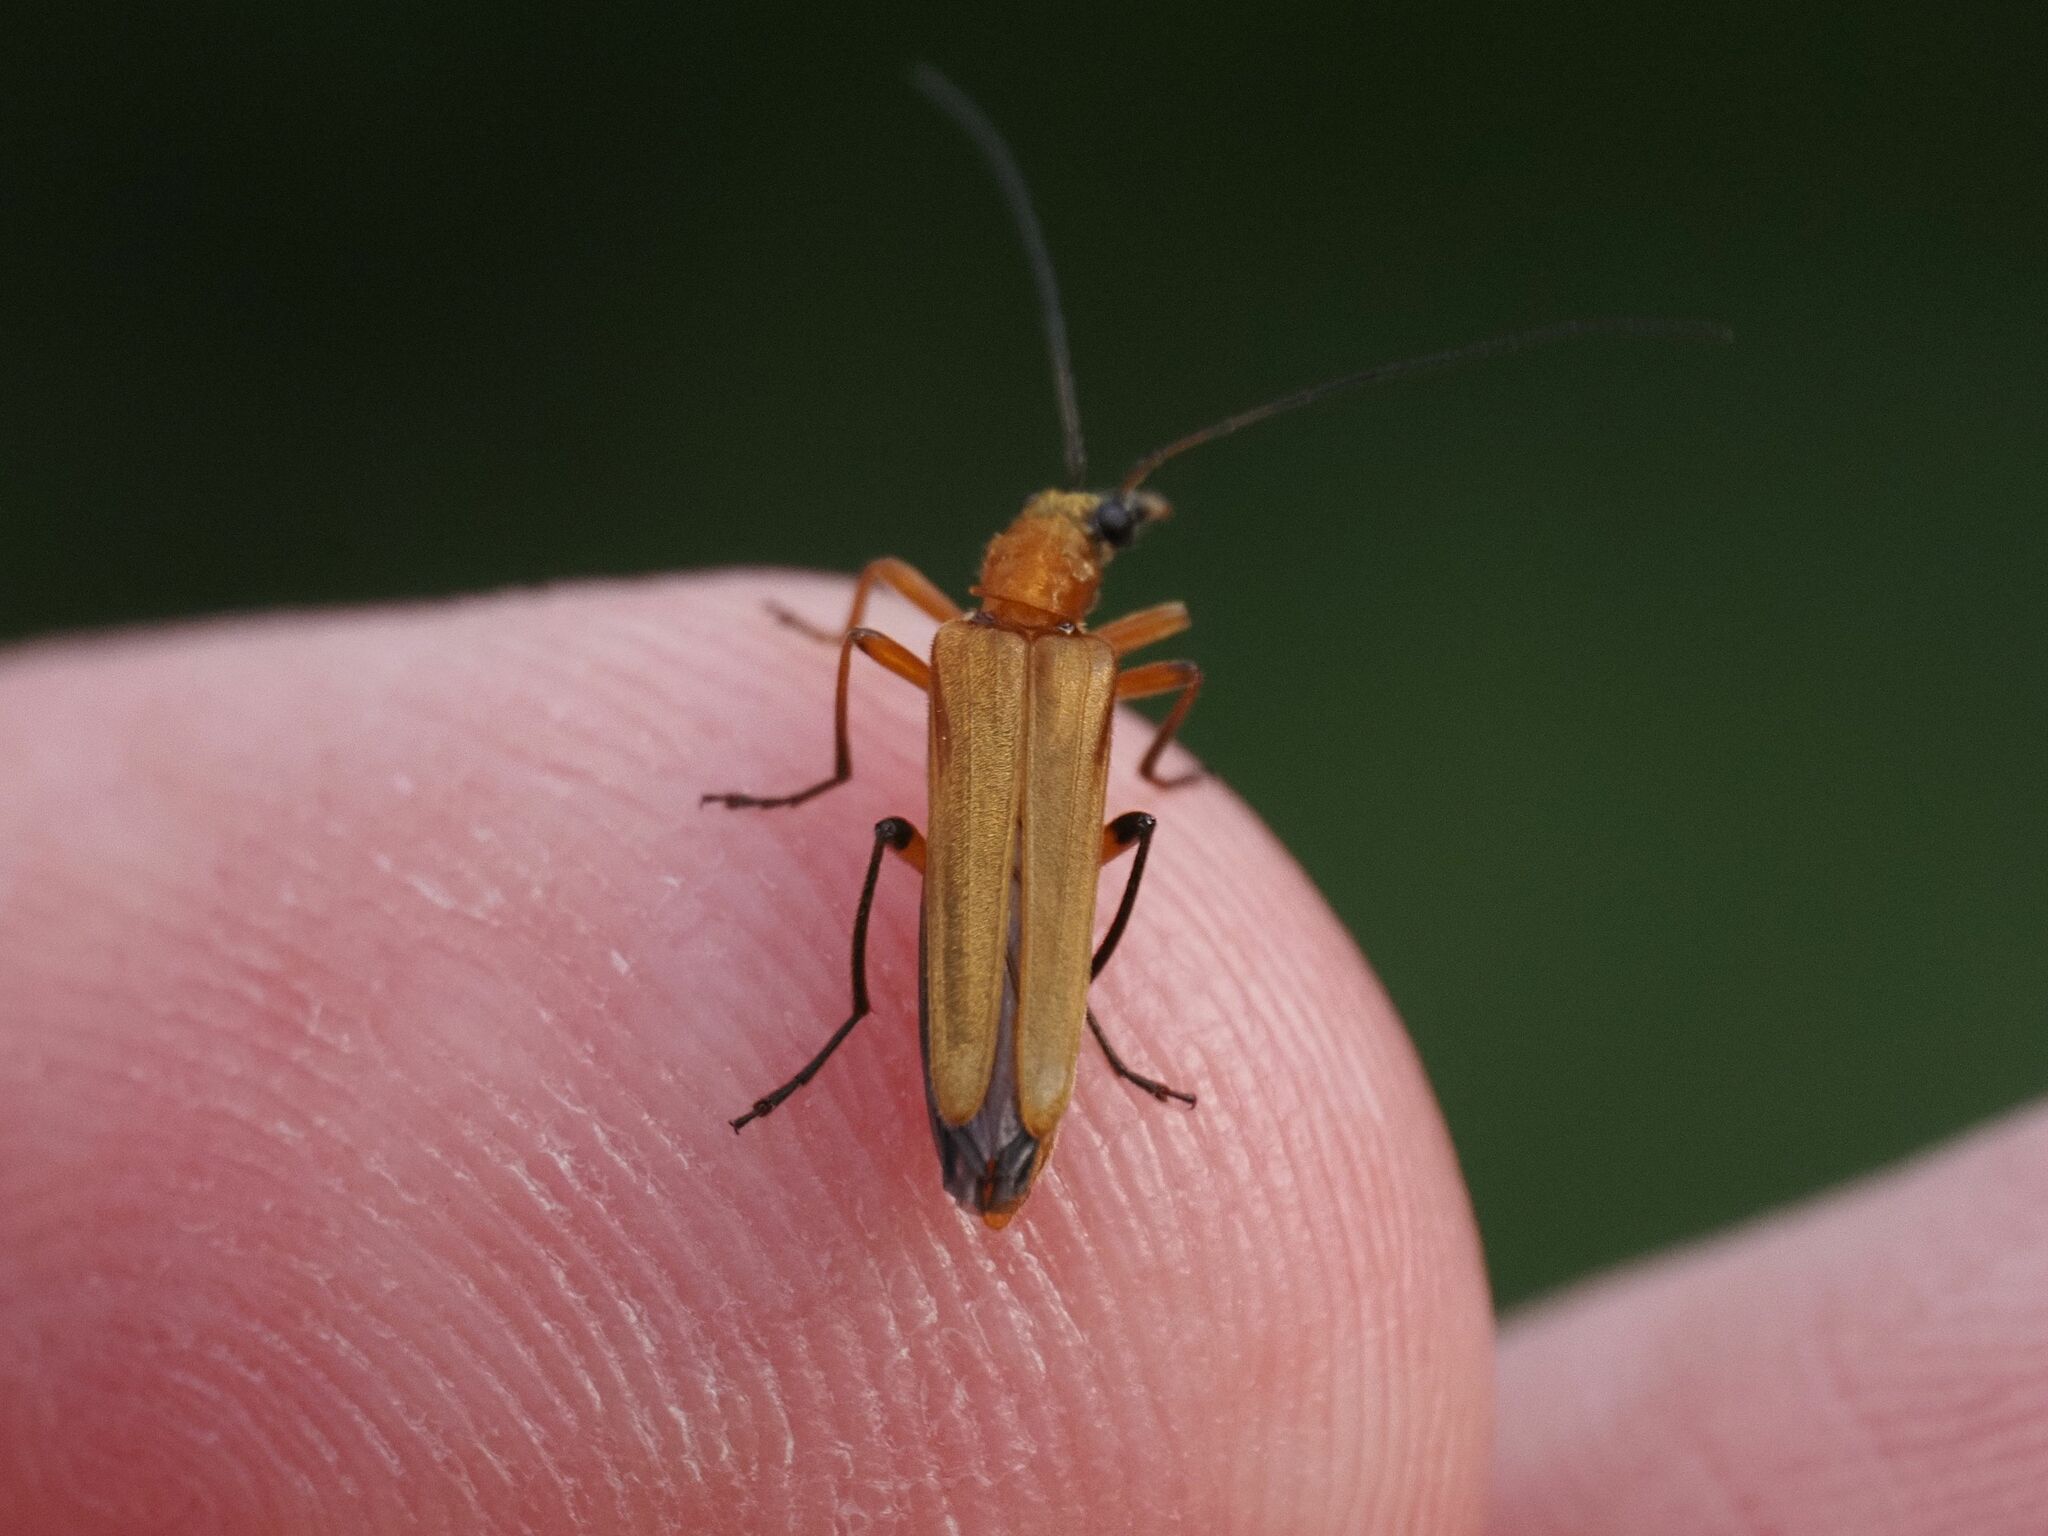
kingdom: Animalia
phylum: Arthropoda
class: Insecta
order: Coleoptera
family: Oedemeridae
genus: Oedemera
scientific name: Oedemera podagrariae
